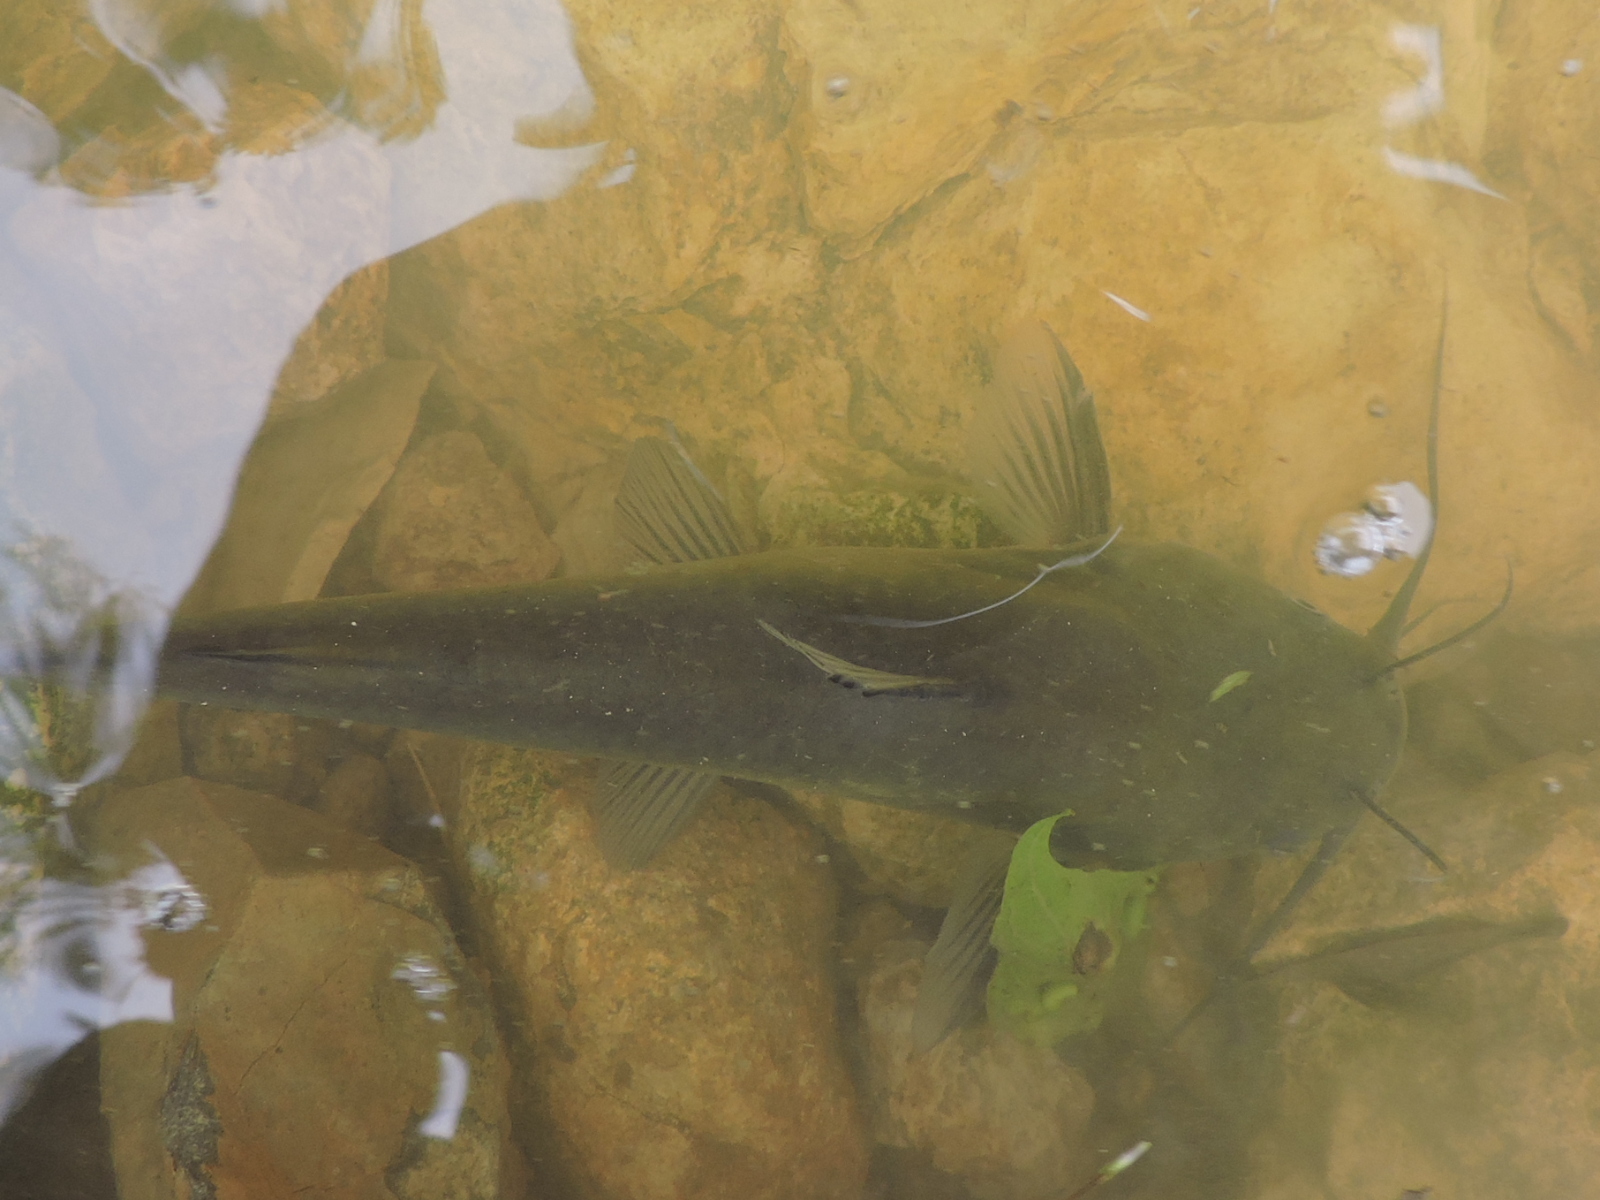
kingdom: Animalia
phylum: Chordata
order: Siluriformes
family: Ictaluridae
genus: Ameiurus
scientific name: Ameiurus melas
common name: Black bullhead
